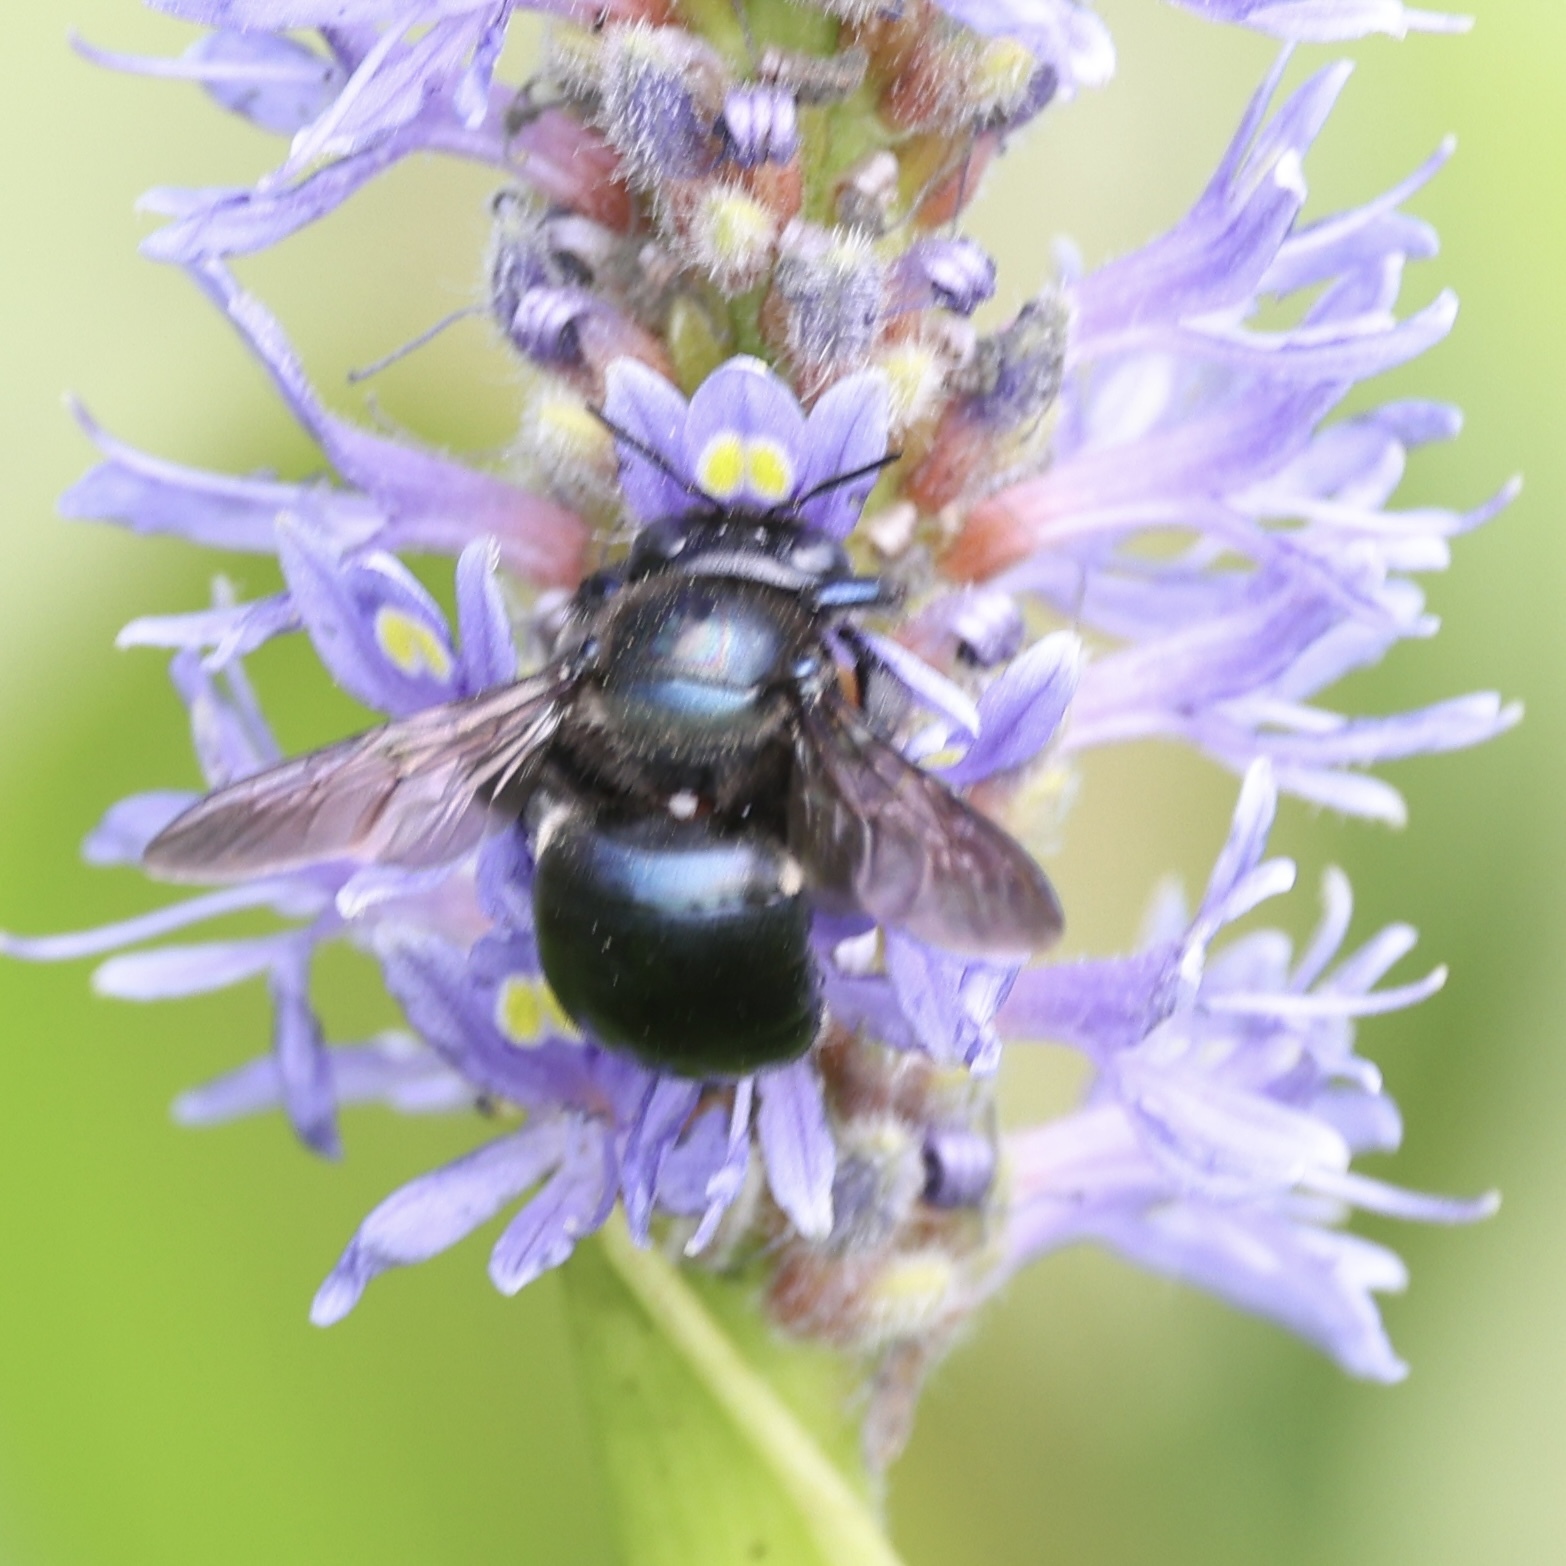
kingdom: Animalia
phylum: Arthropoda
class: Insecta
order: Hymenoptera
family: Apidae
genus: Xylocopa
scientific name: Xylocopa micans
